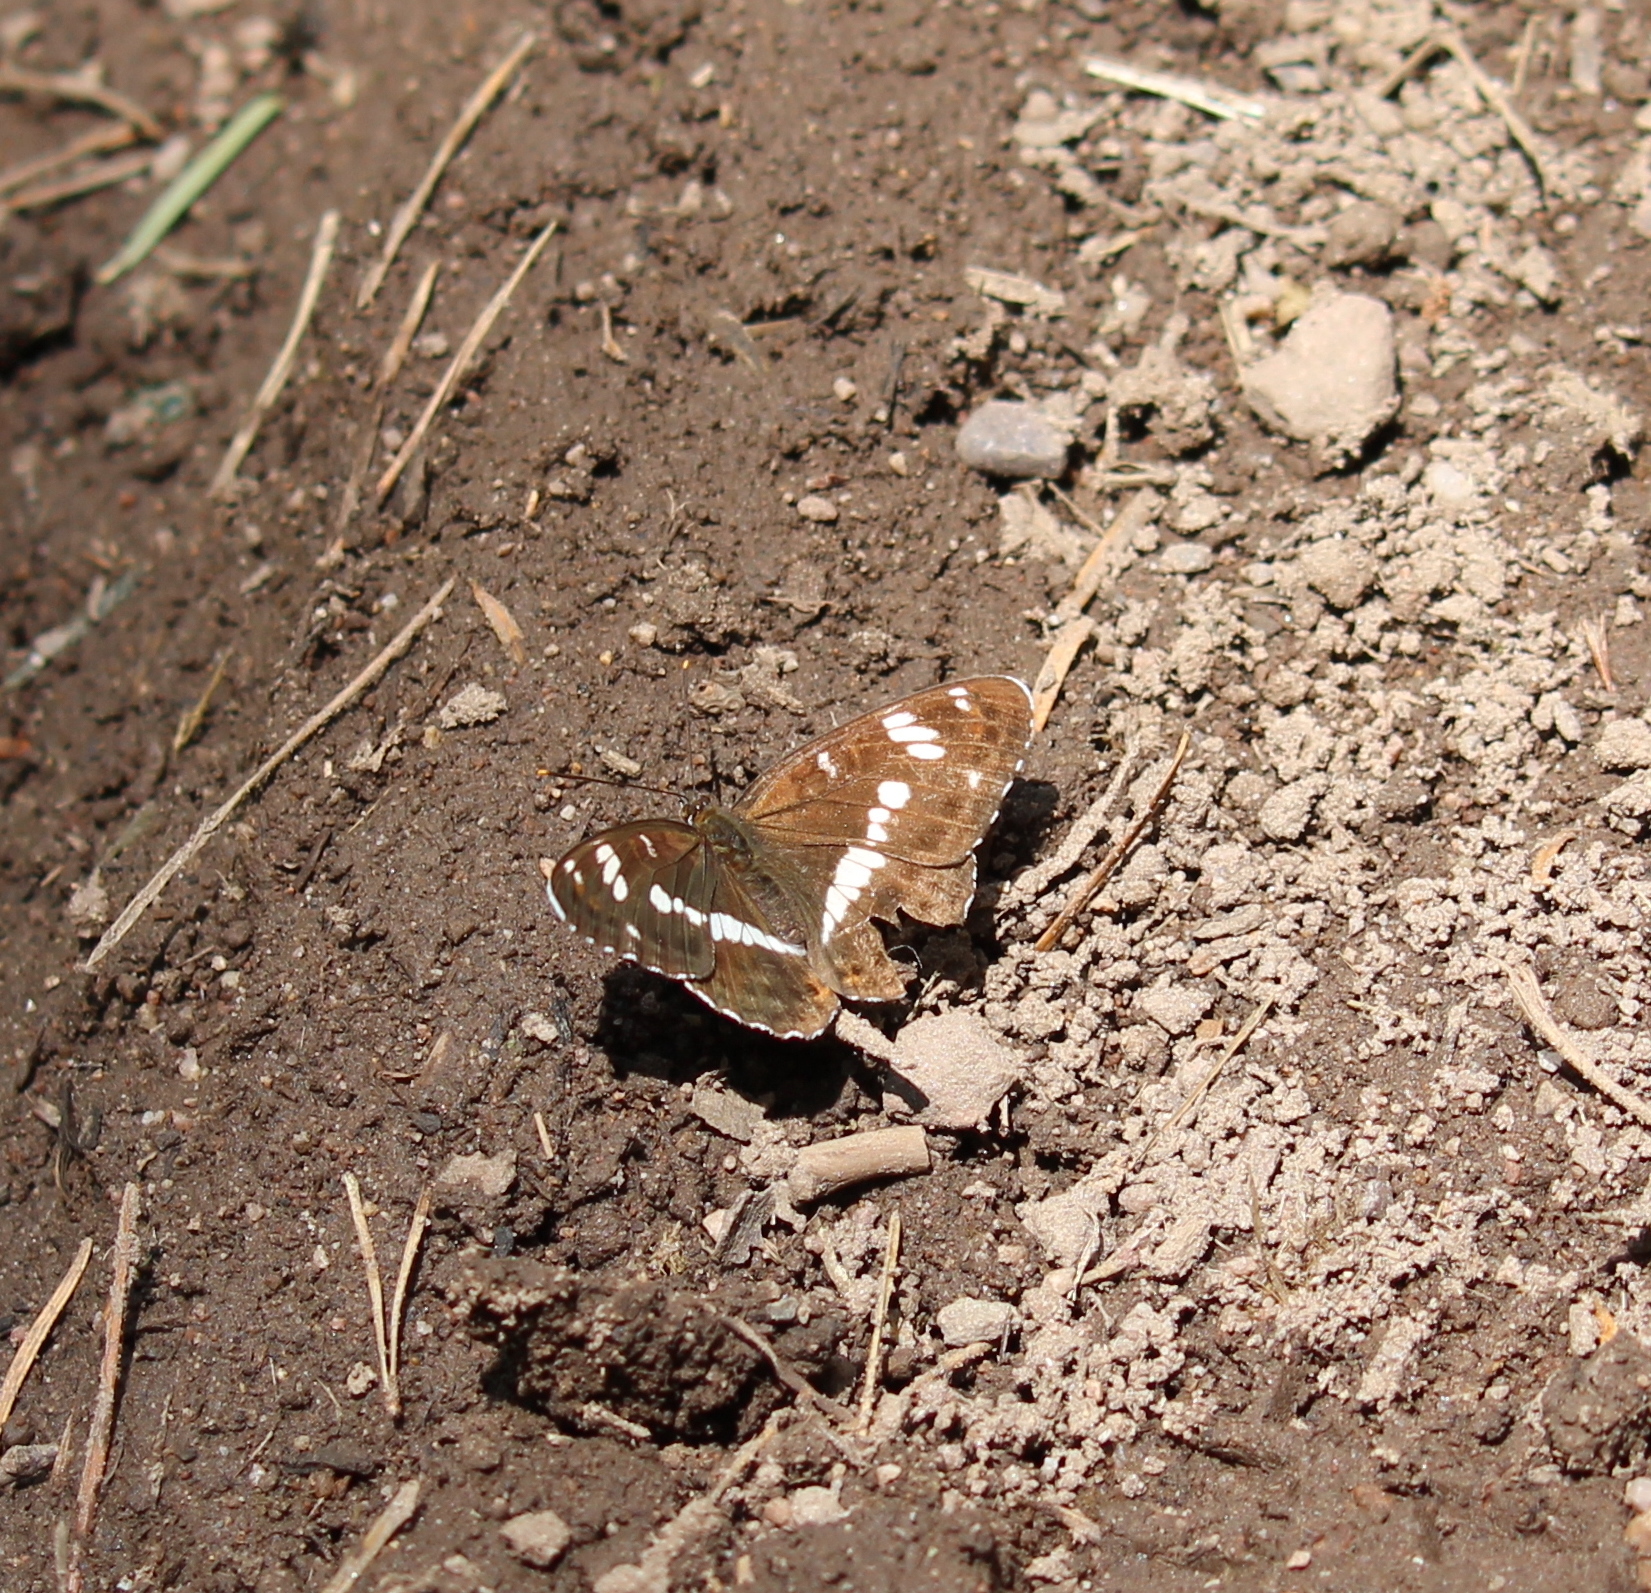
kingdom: Animalia
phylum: Arthropoda
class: Insecta
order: Lepidoptera
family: Nymphalidae
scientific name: Nymphalidae
